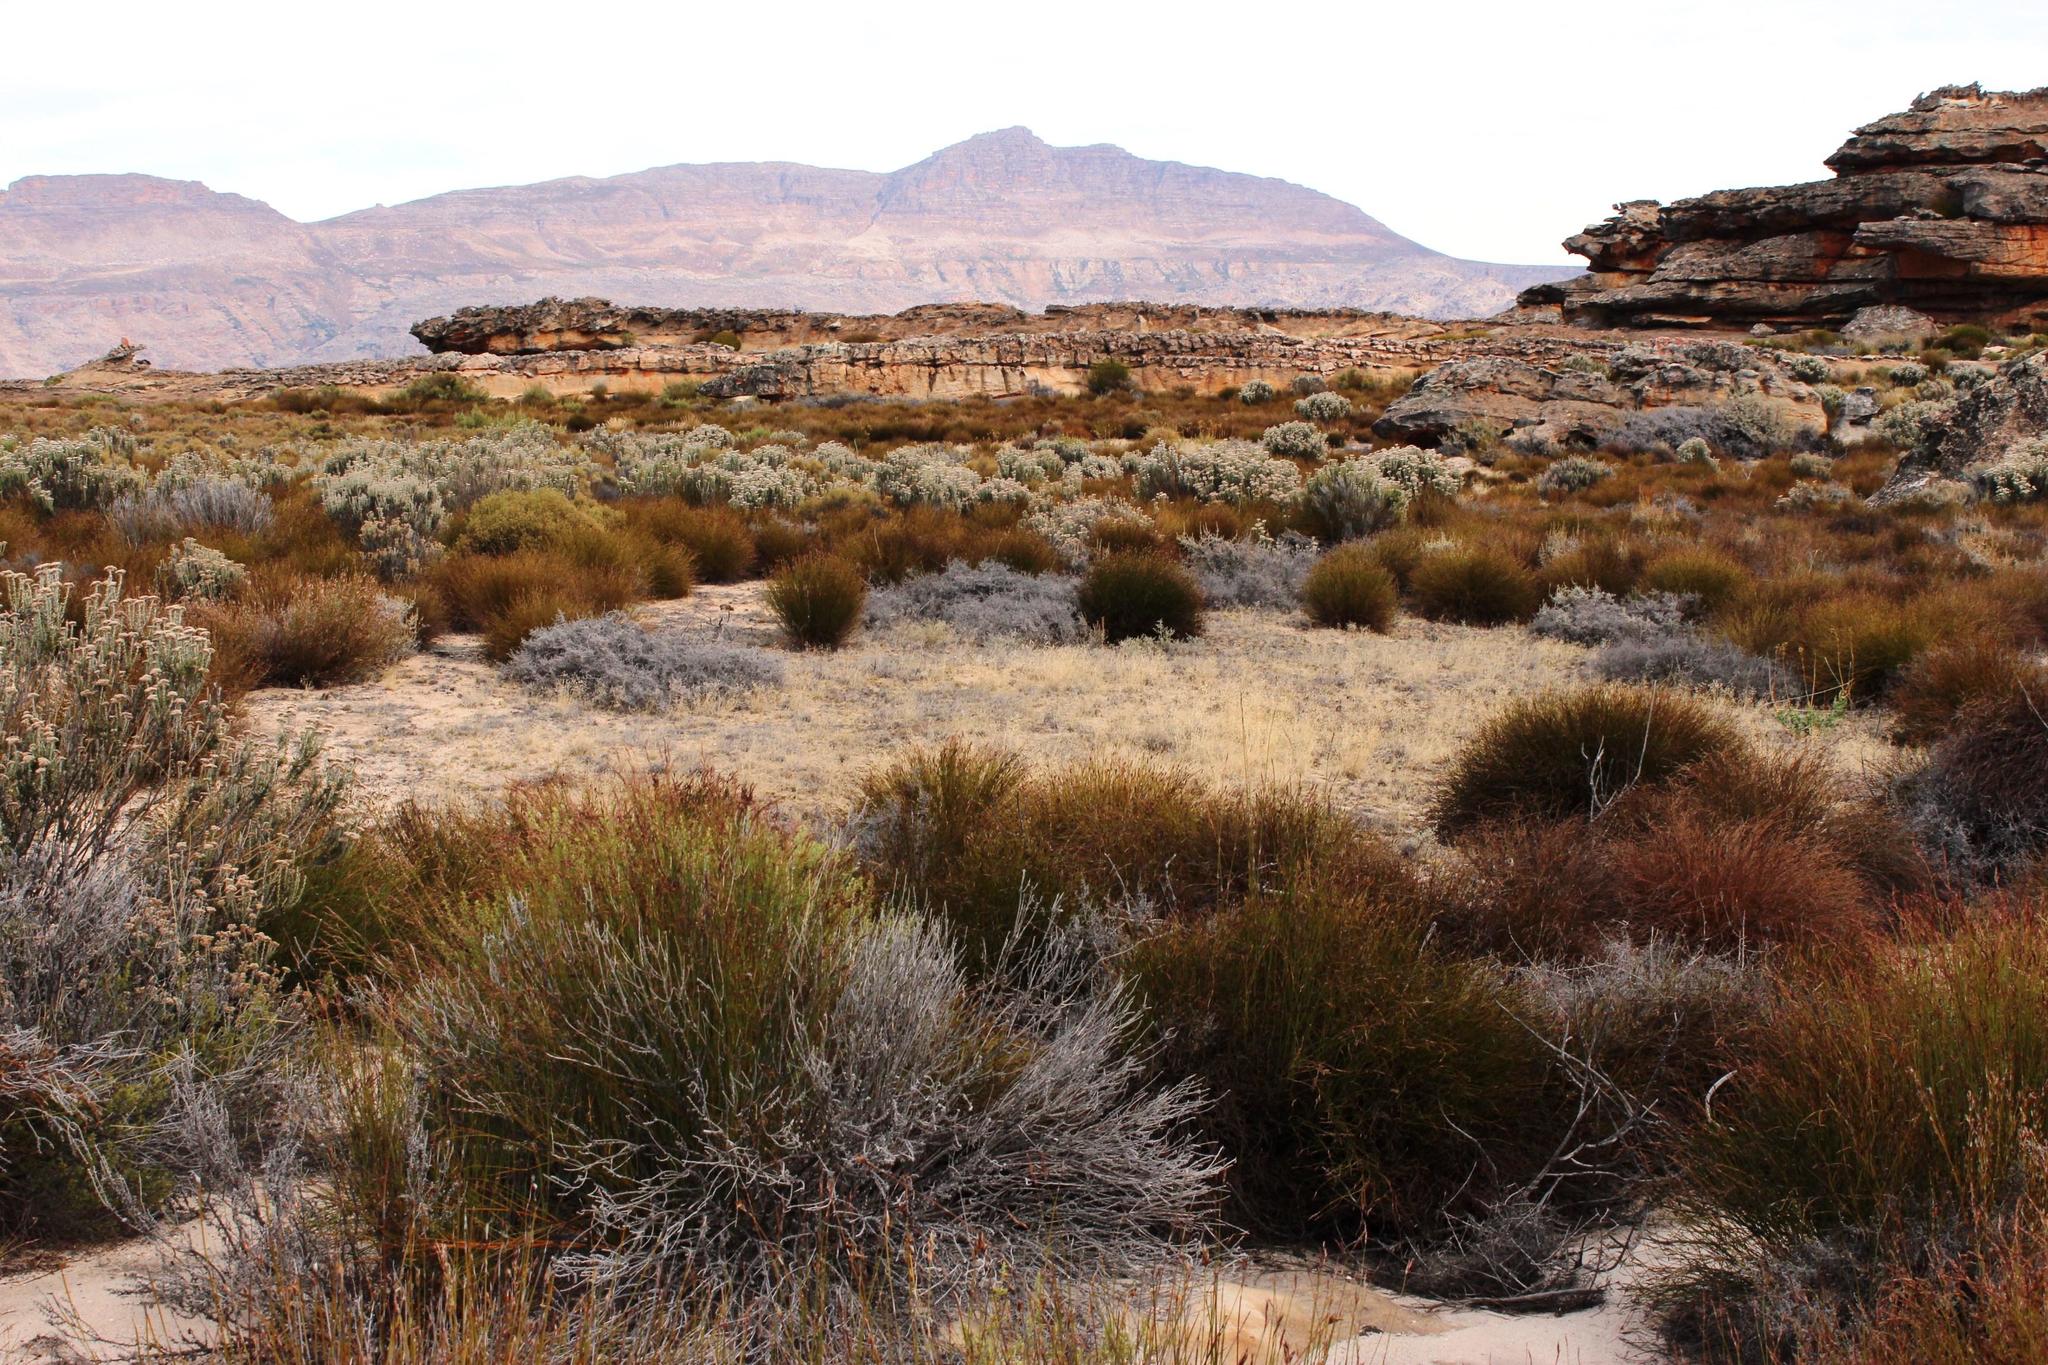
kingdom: Animalia
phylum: Arthropoda
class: Insecta
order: Blattodea
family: Hodotermitidae
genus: Microhodotermes
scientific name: Microhodotermes viator
